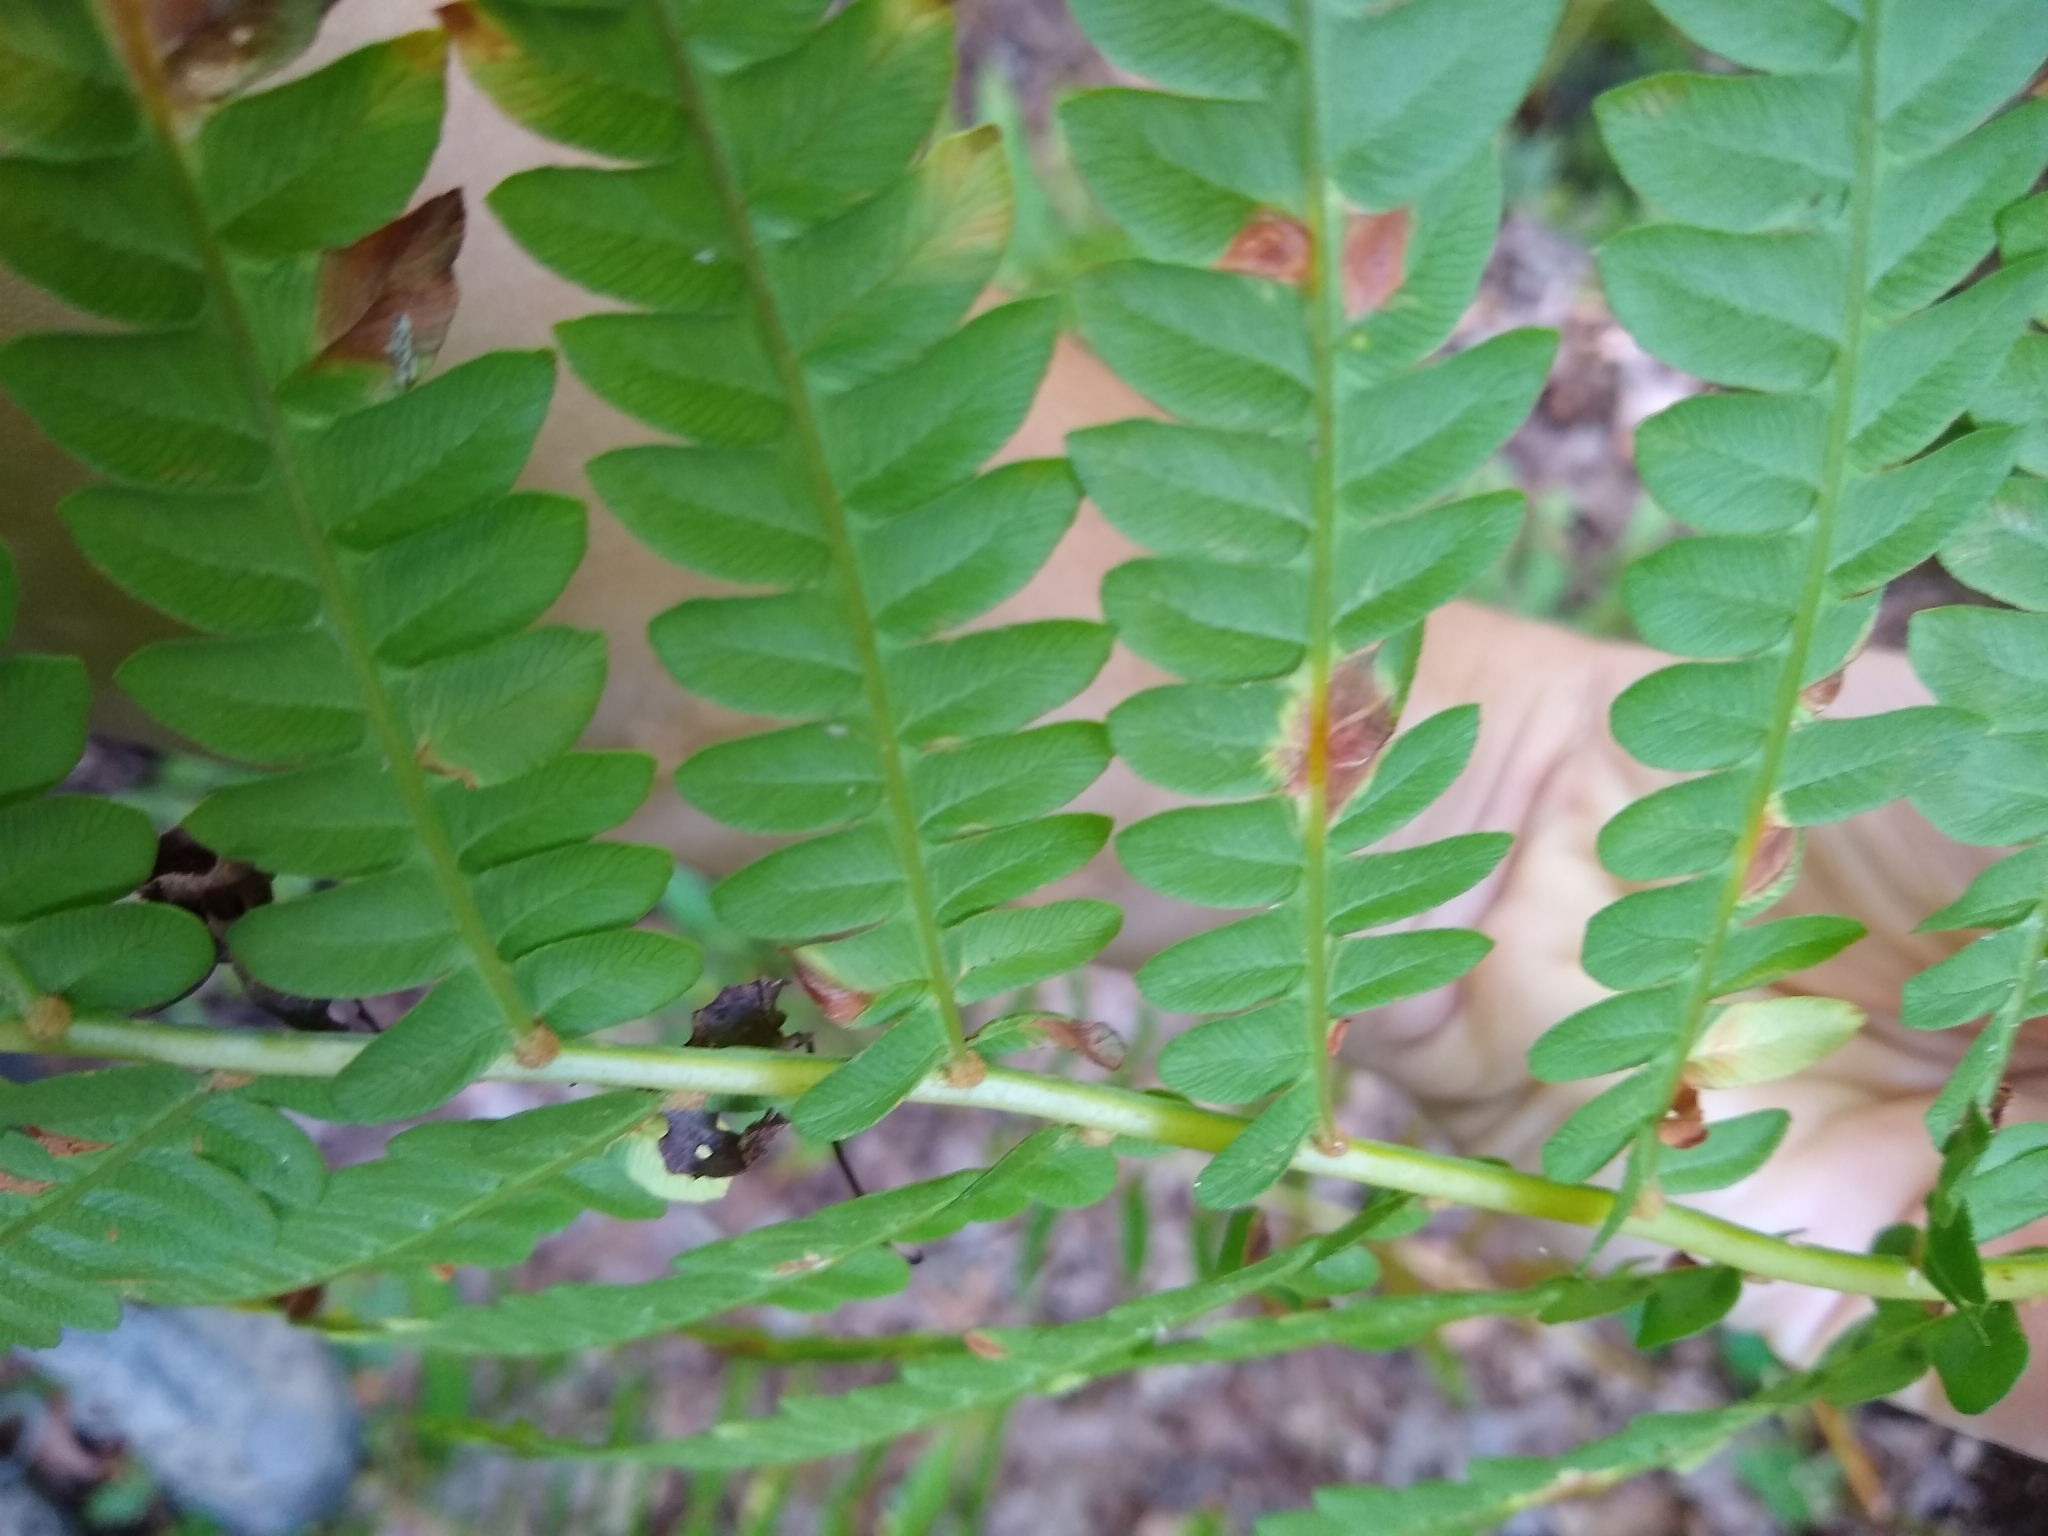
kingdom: Plantae
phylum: Tracheophyta
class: Polypodiopsida
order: Osmundales
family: Osmundaceae
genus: Osmundastrum
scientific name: Osmundastrum cinnamomeum
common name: Cinnamon fern
